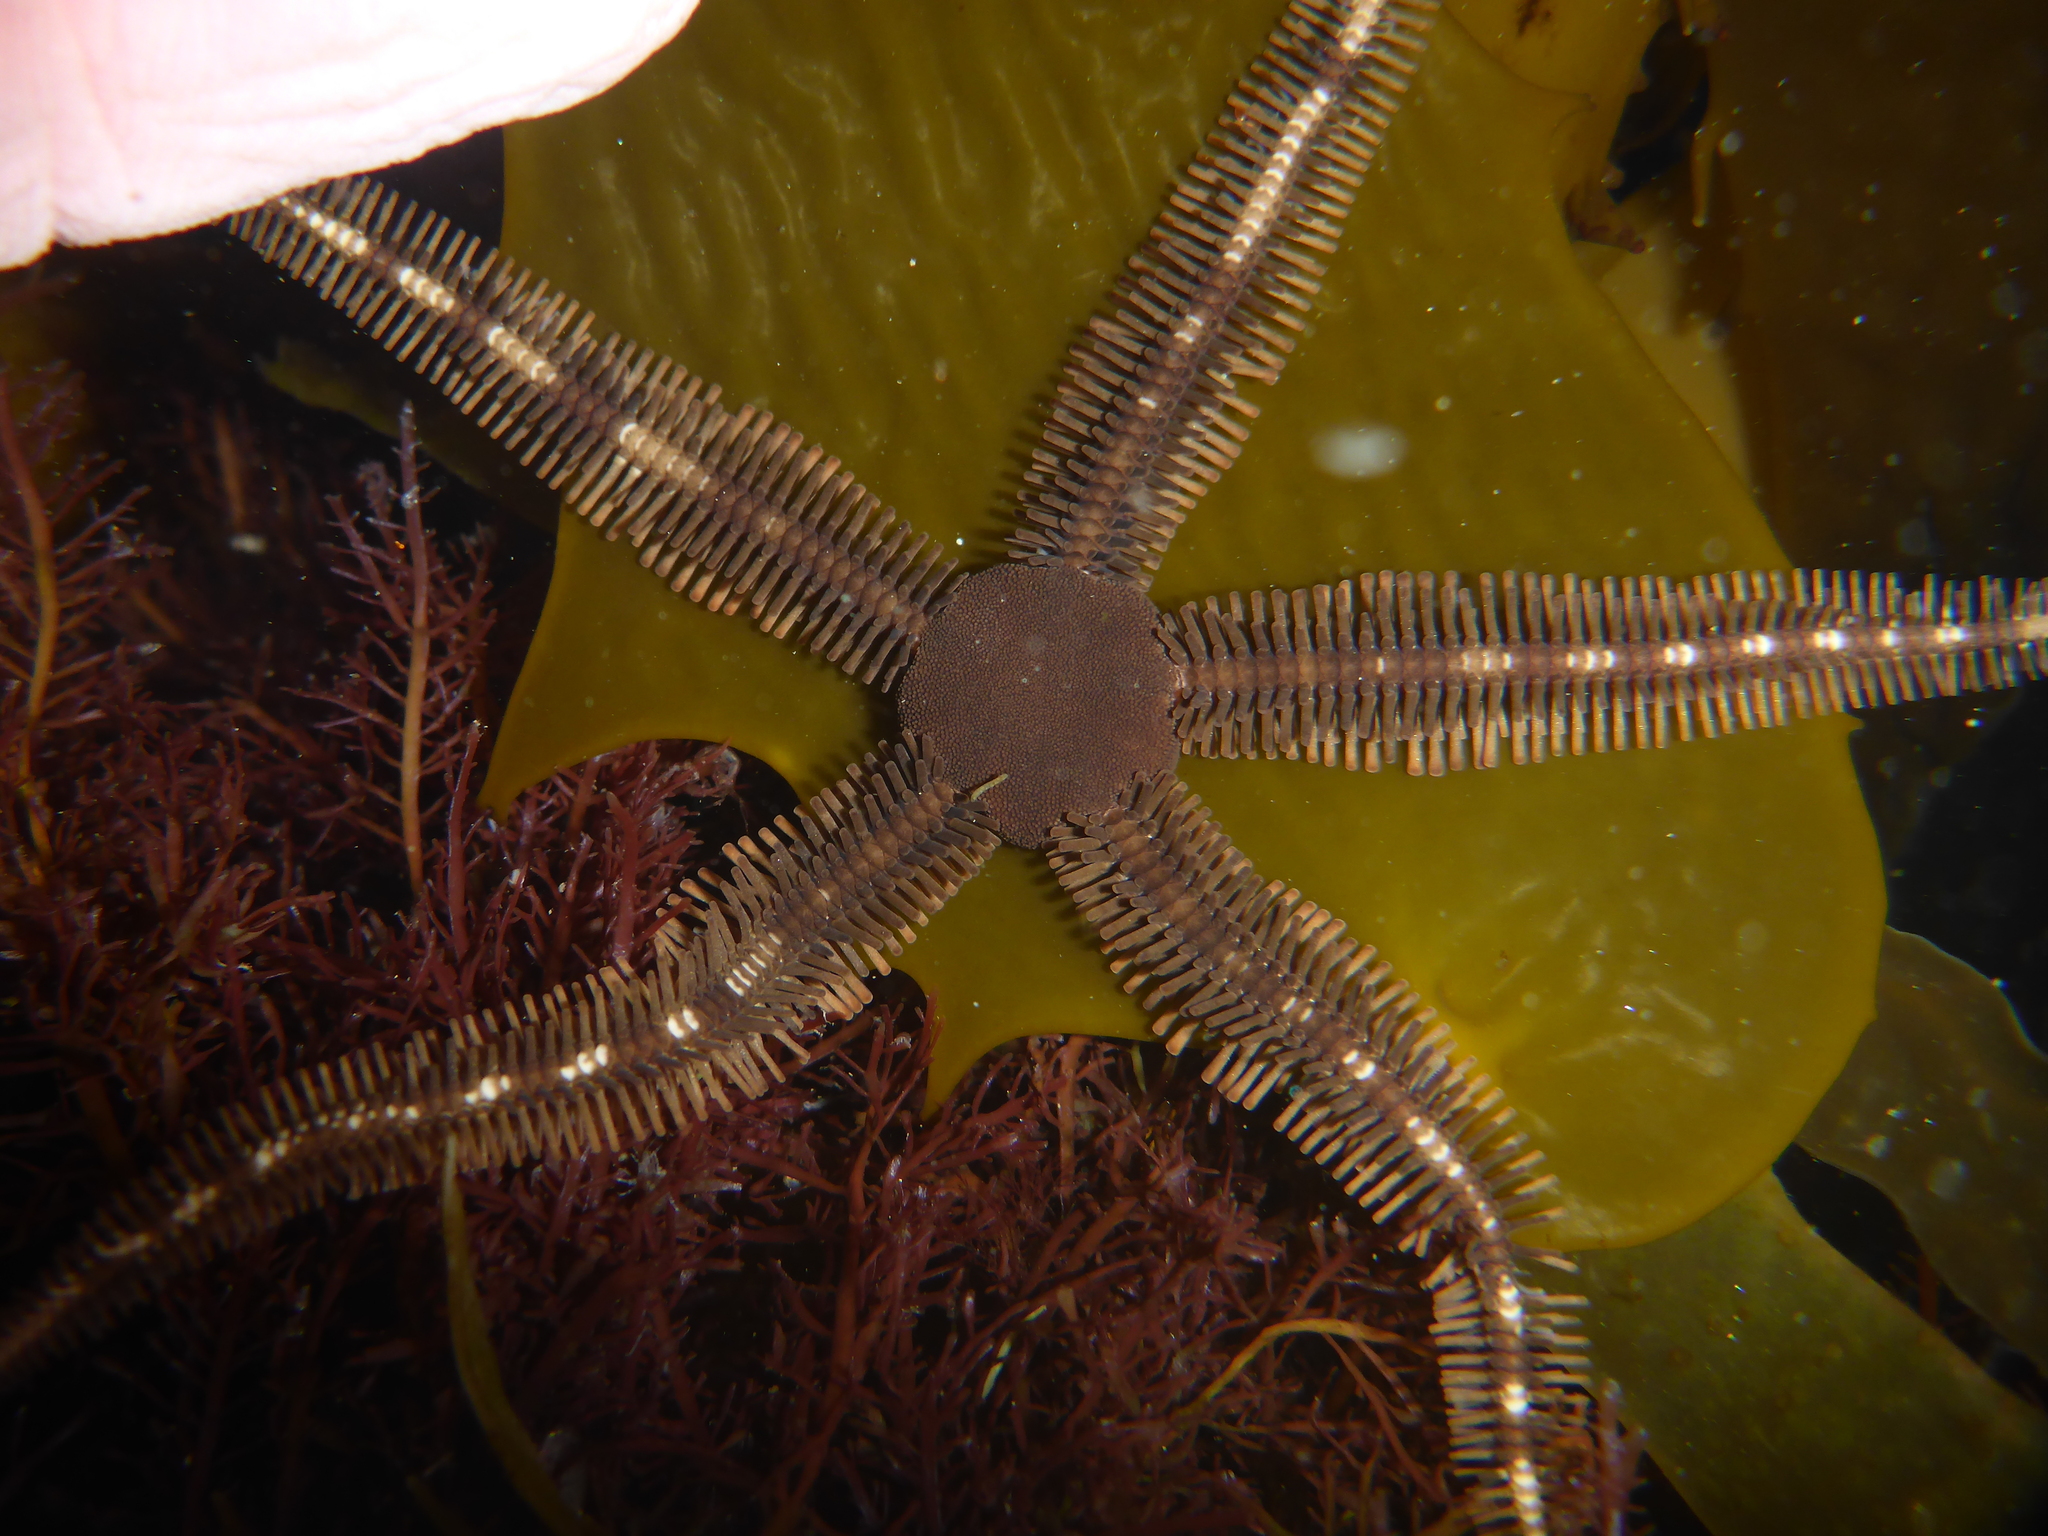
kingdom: Animalia
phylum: Echinodermata
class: Ophiuroidea
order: Ophiacanthida
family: Ophiopteridae
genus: Ophiopteris
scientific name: Ophiopteris papillosa
